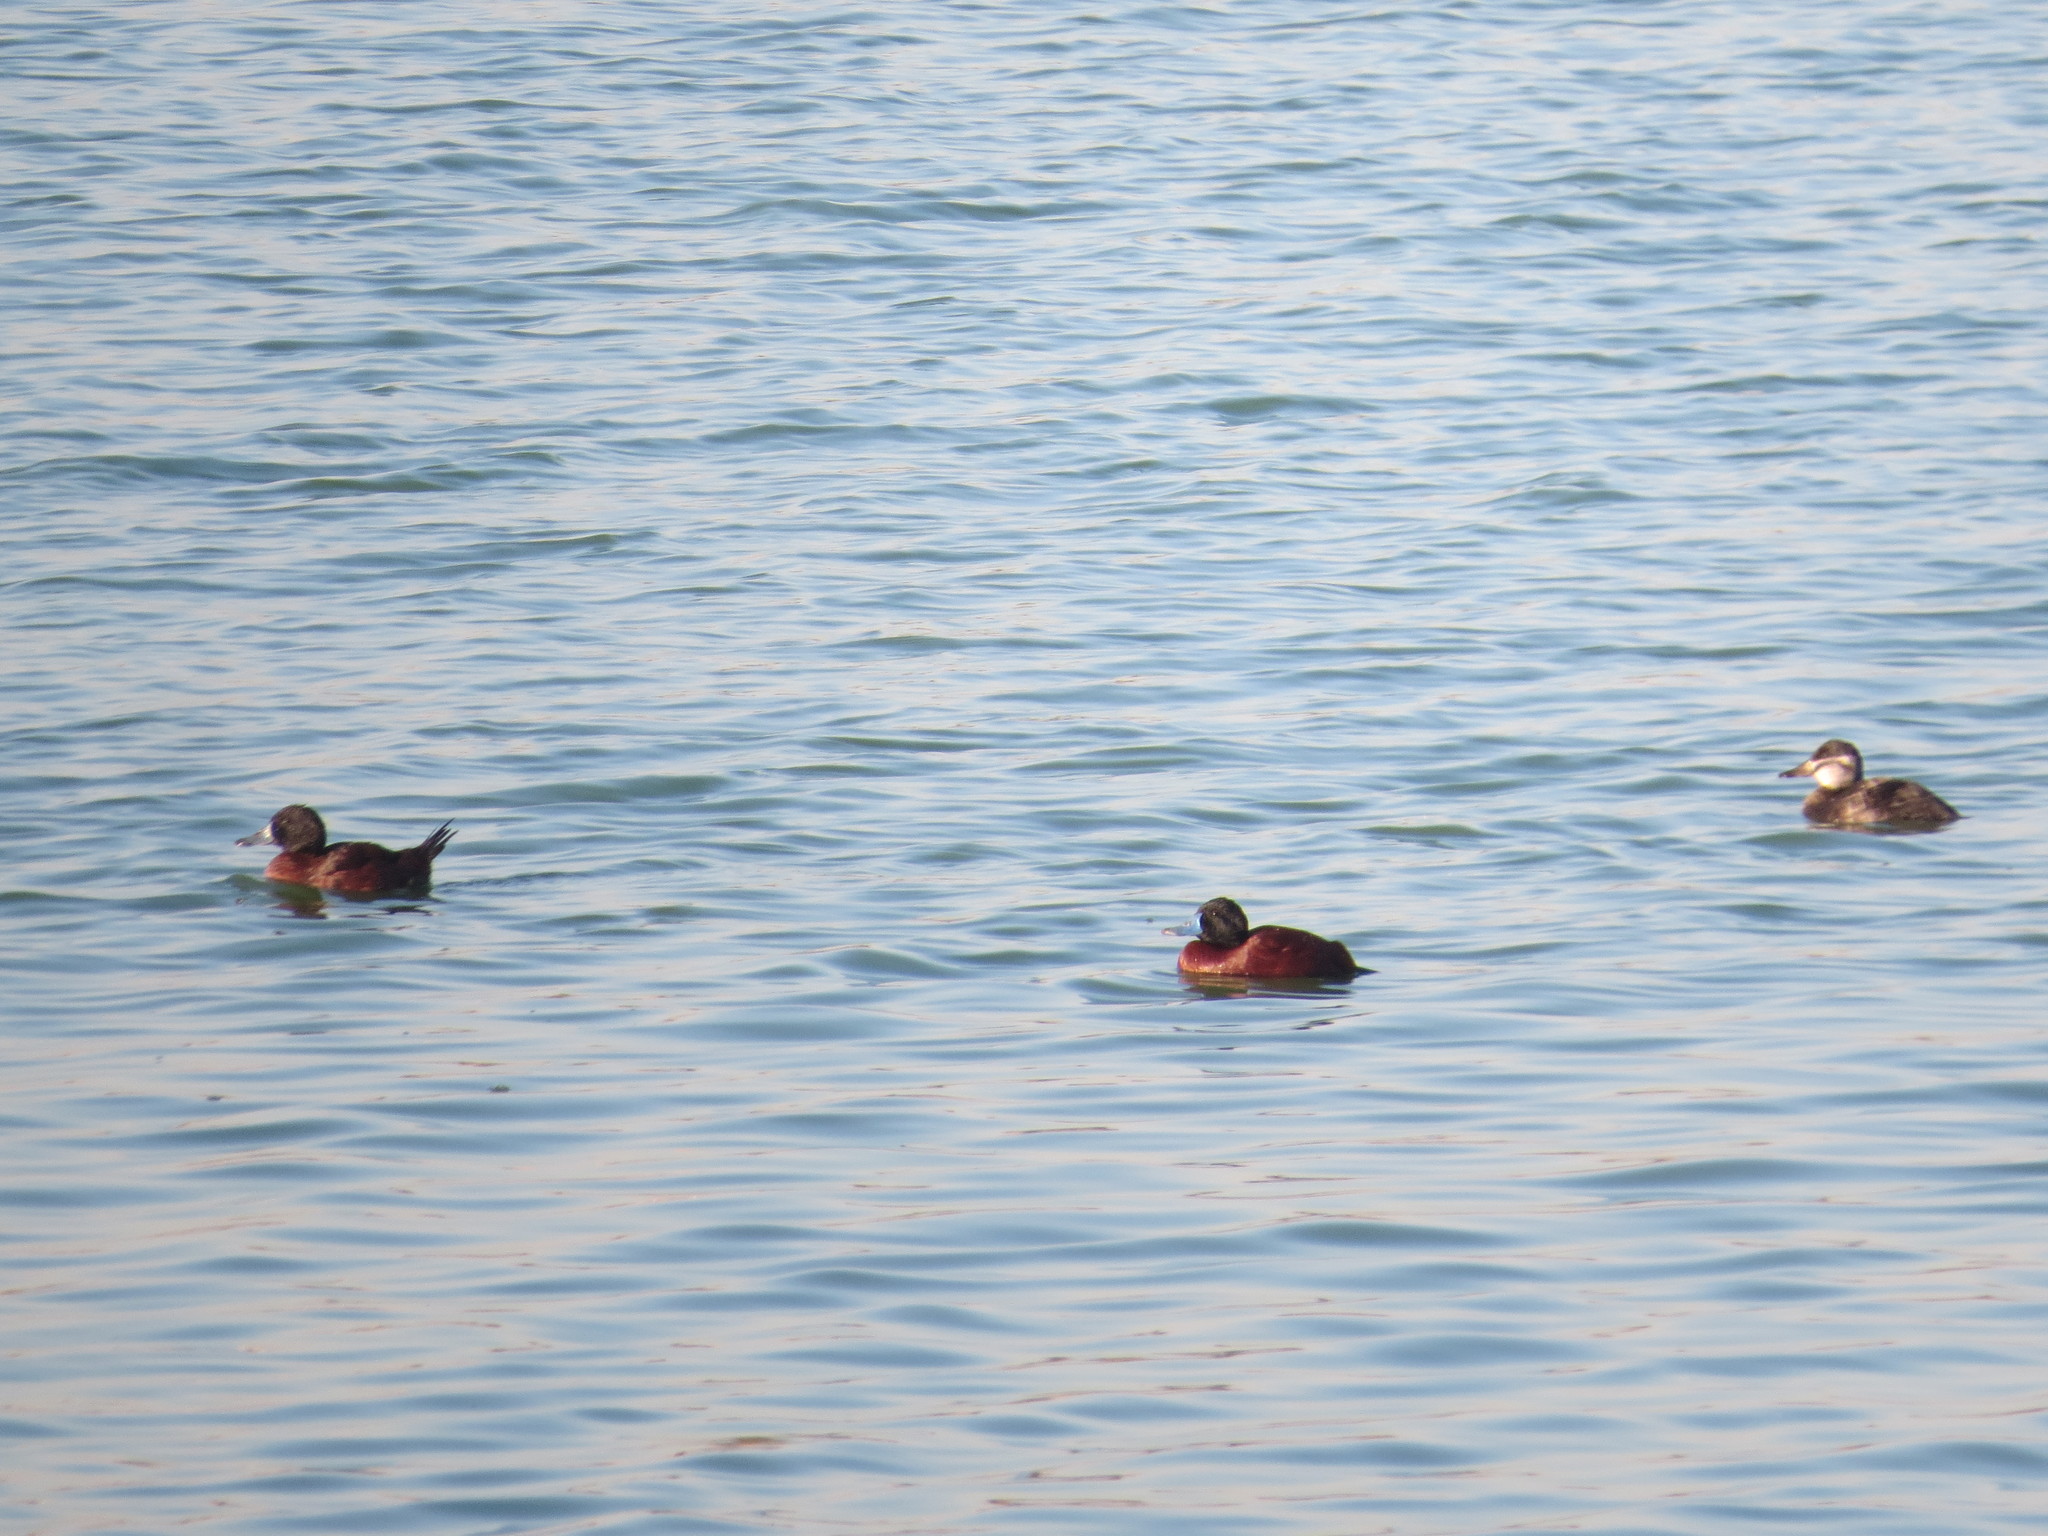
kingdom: Animalia
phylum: Chordata
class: Aves
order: Anseriformes
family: Anatidae
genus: Oxyura
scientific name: Oxyura vittata
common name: Lake duck
